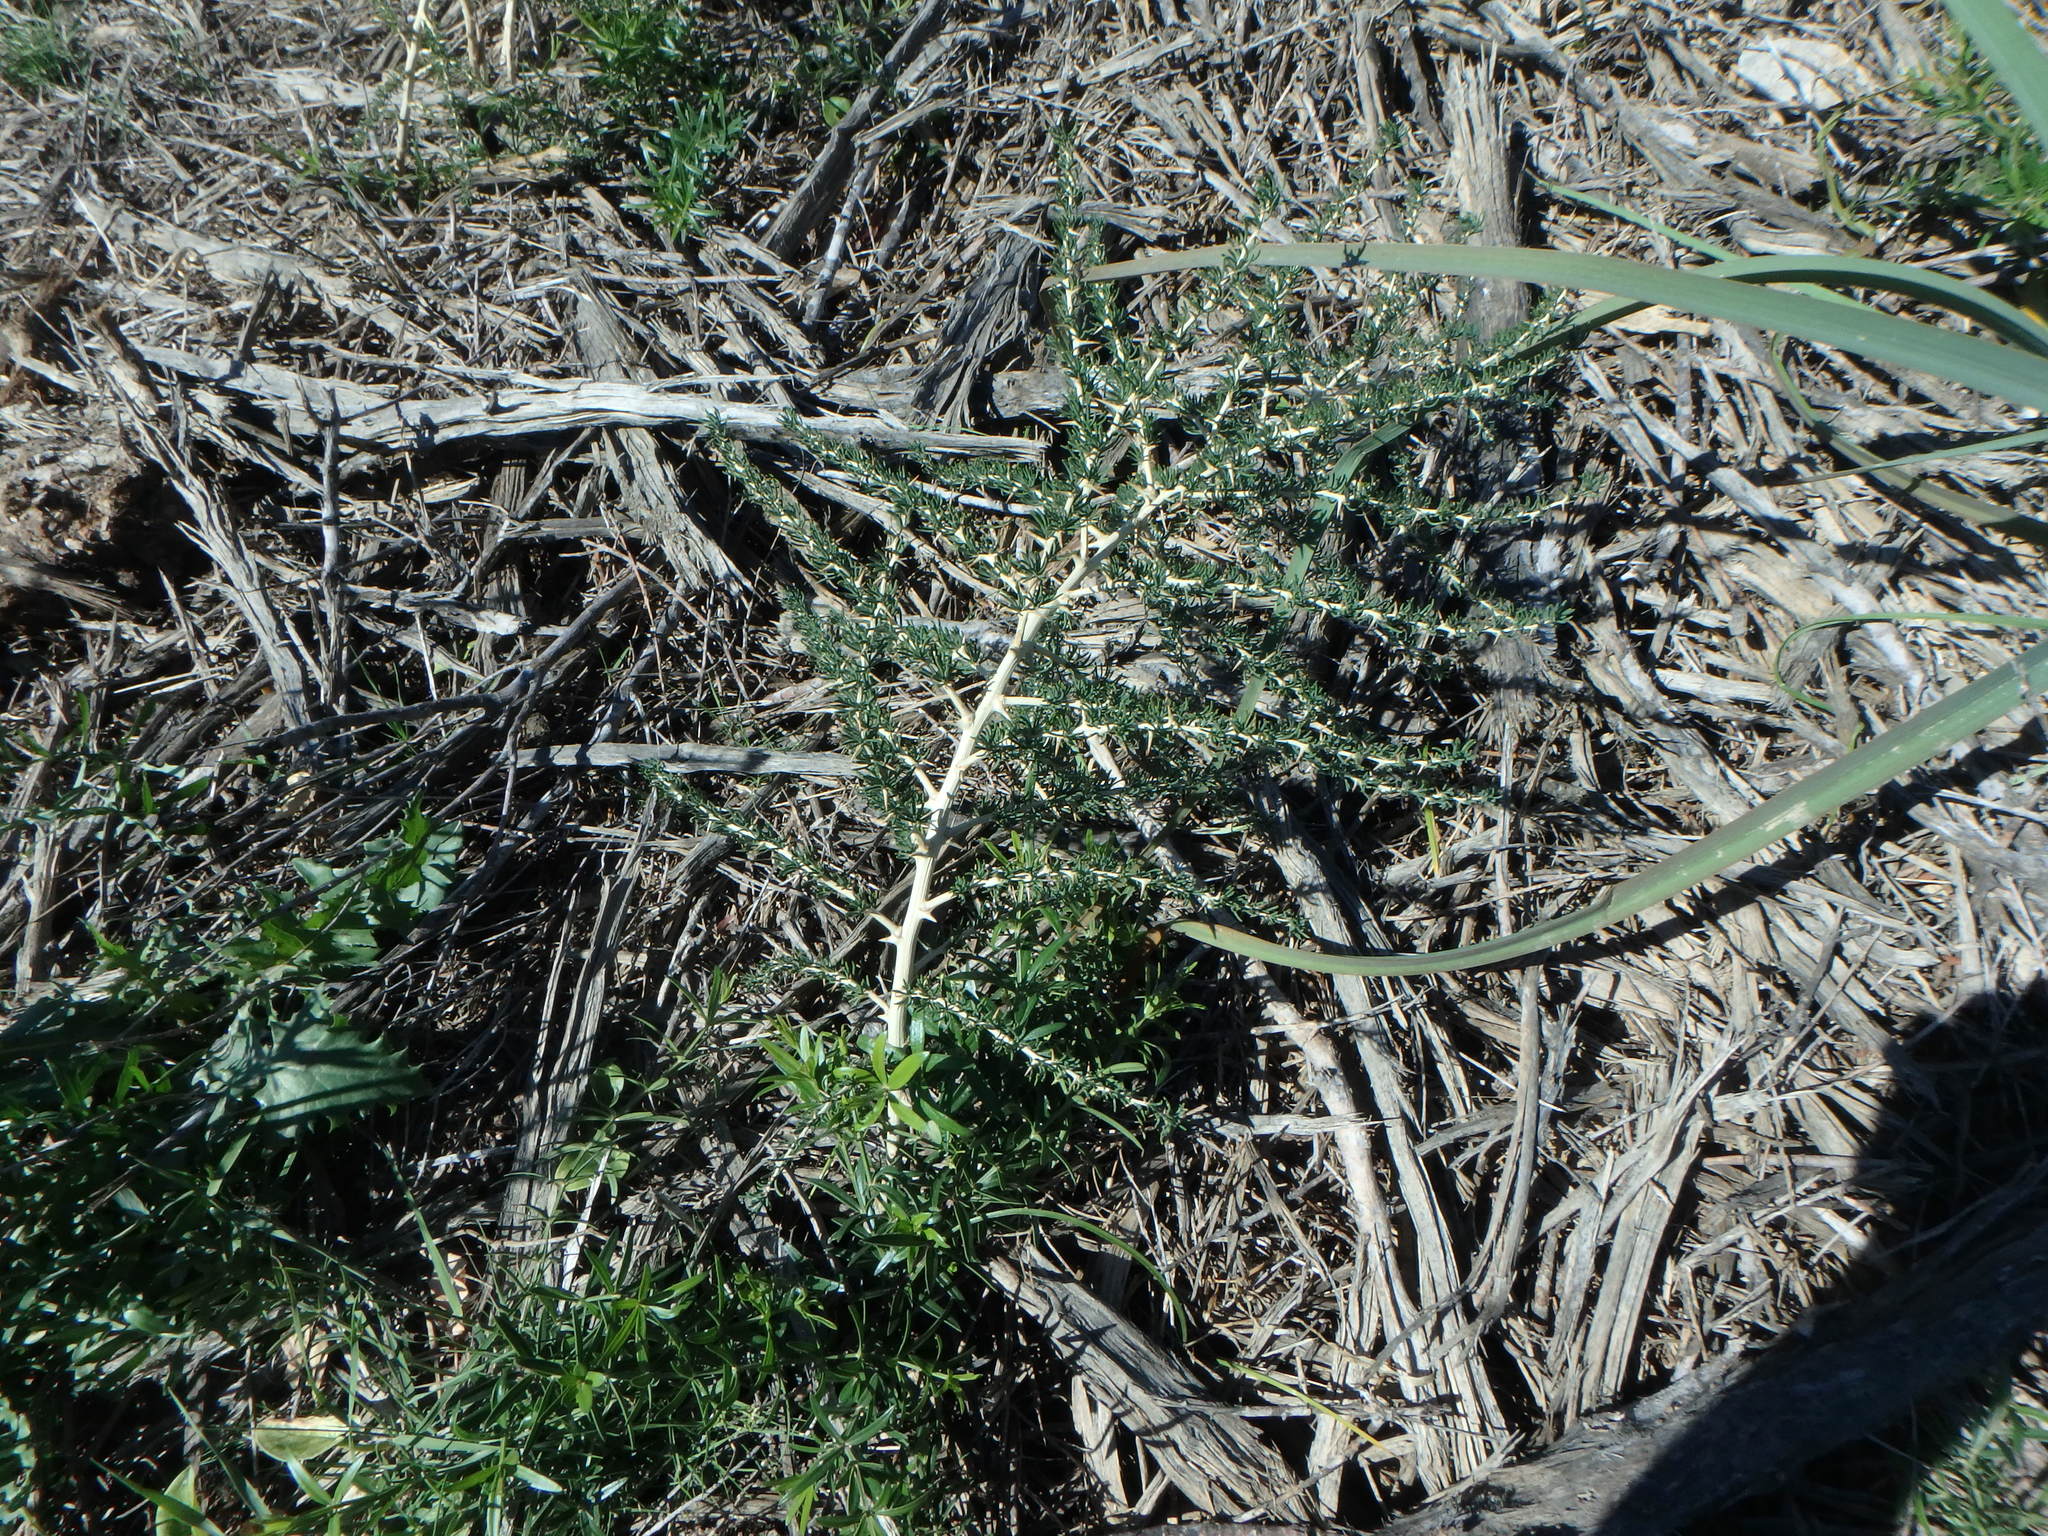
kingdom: Plantae
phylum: Tracheophyta
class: Liliopsida
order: Asparagales
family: Asparagaceae
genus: Asparagus
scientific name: Asparagus albus
